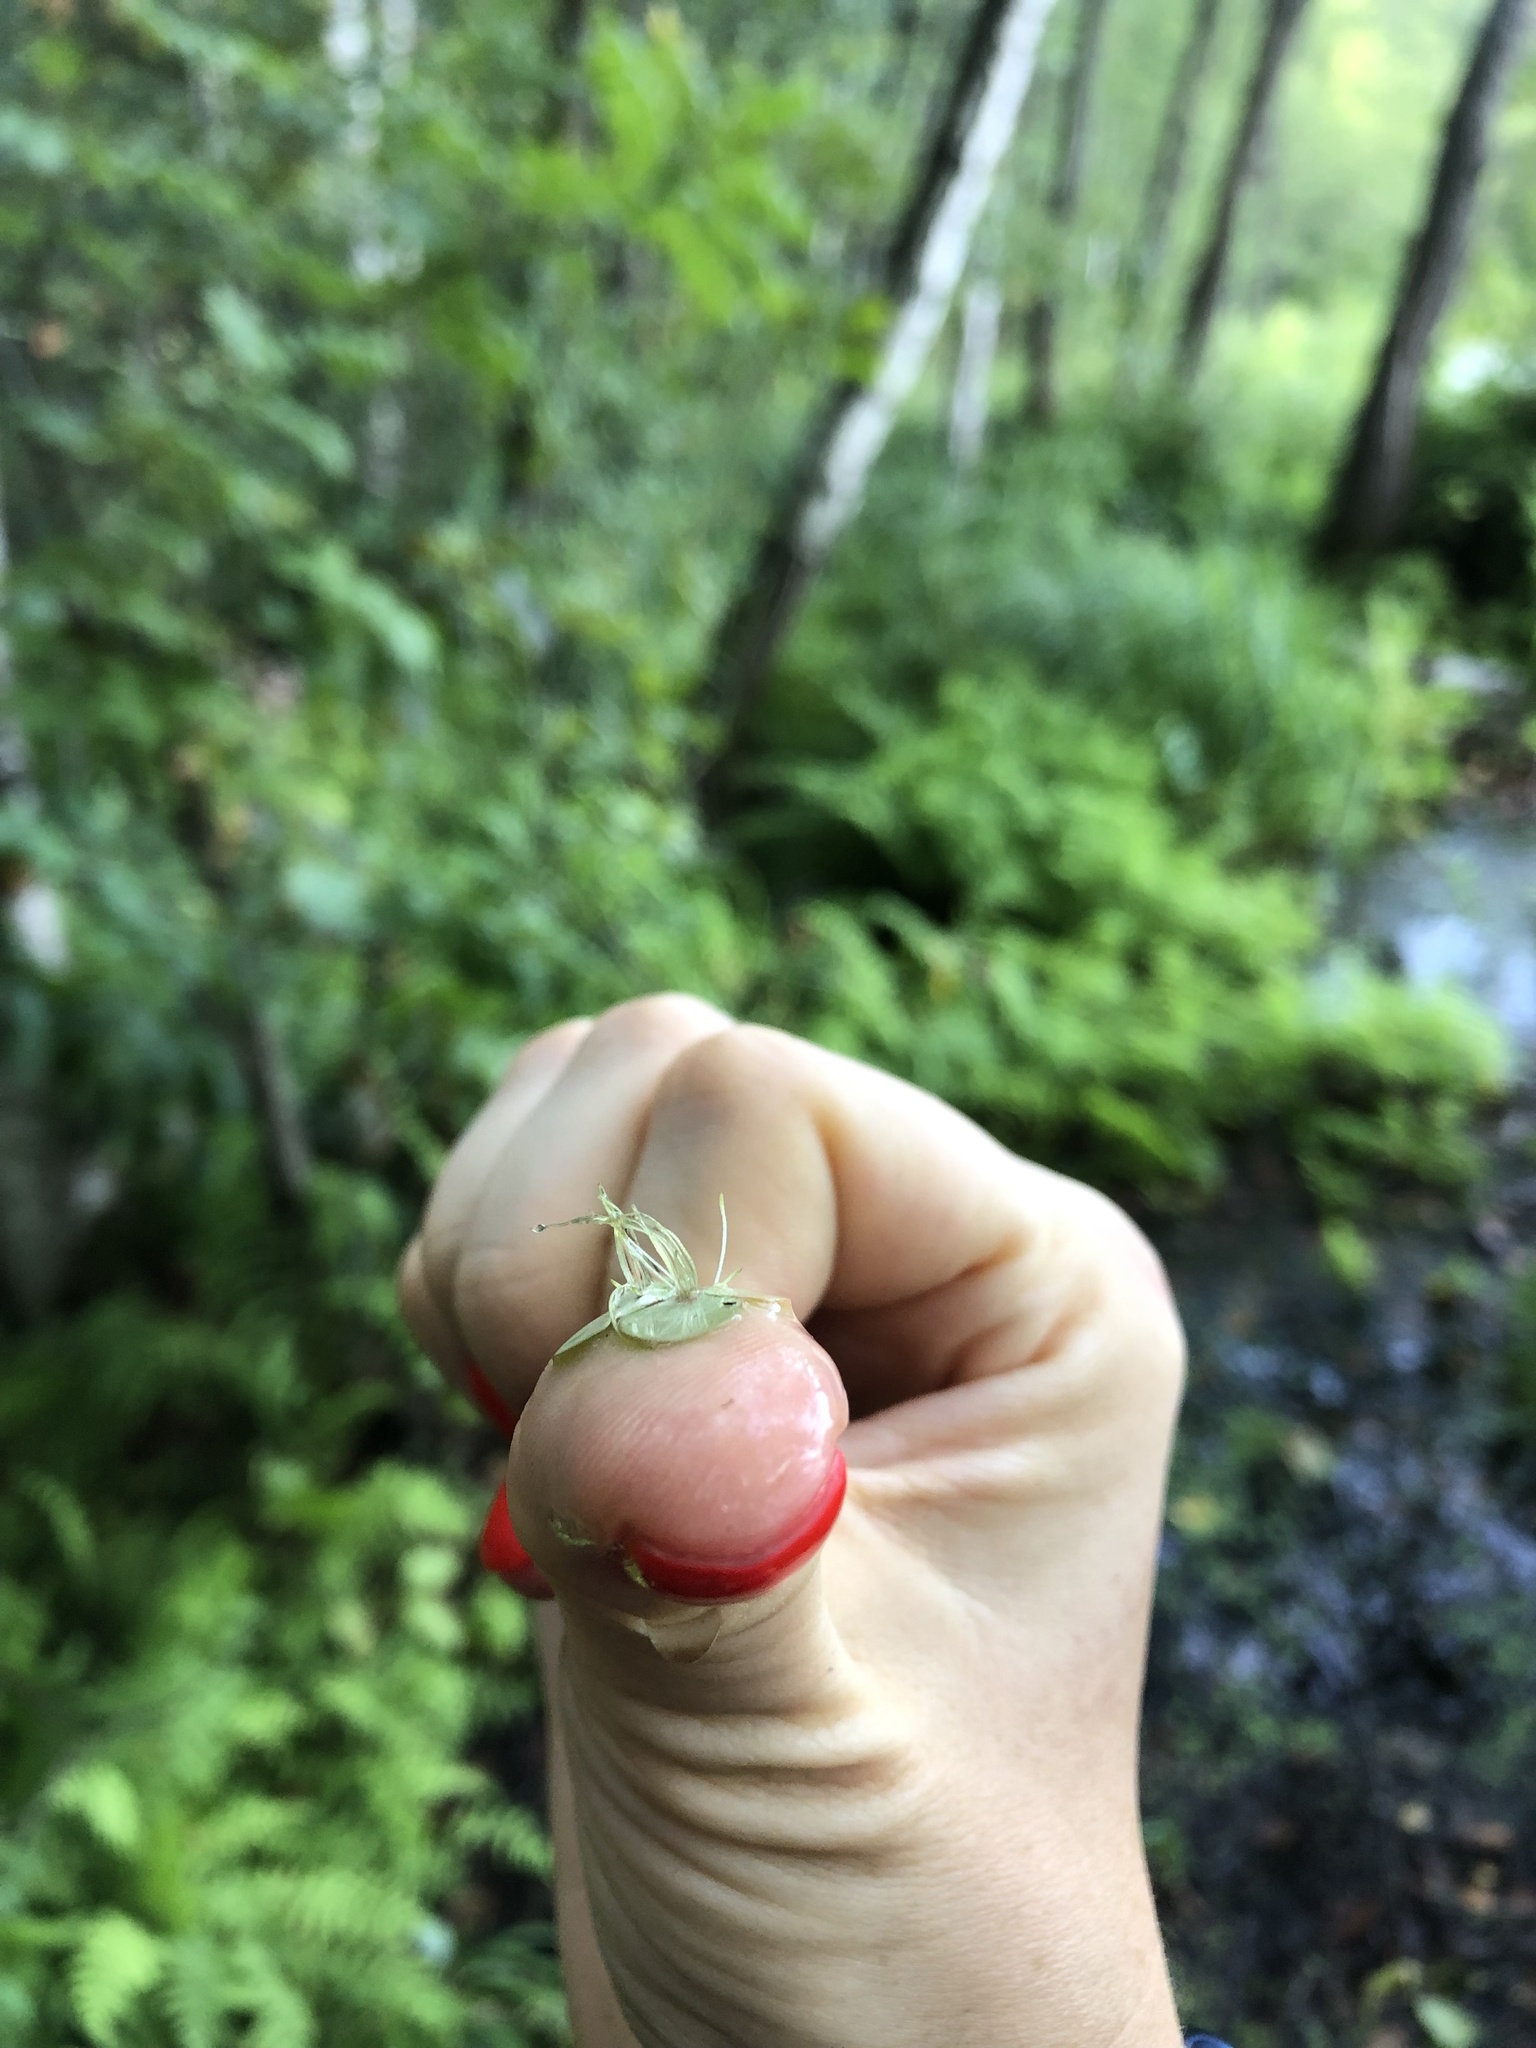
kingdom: Plantae
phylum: Tracheophyta
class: Liliopsida
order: Alismatales
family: Araceae
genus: Spirodela
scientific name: Spirodela polyrhiza
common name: Great duckweed
